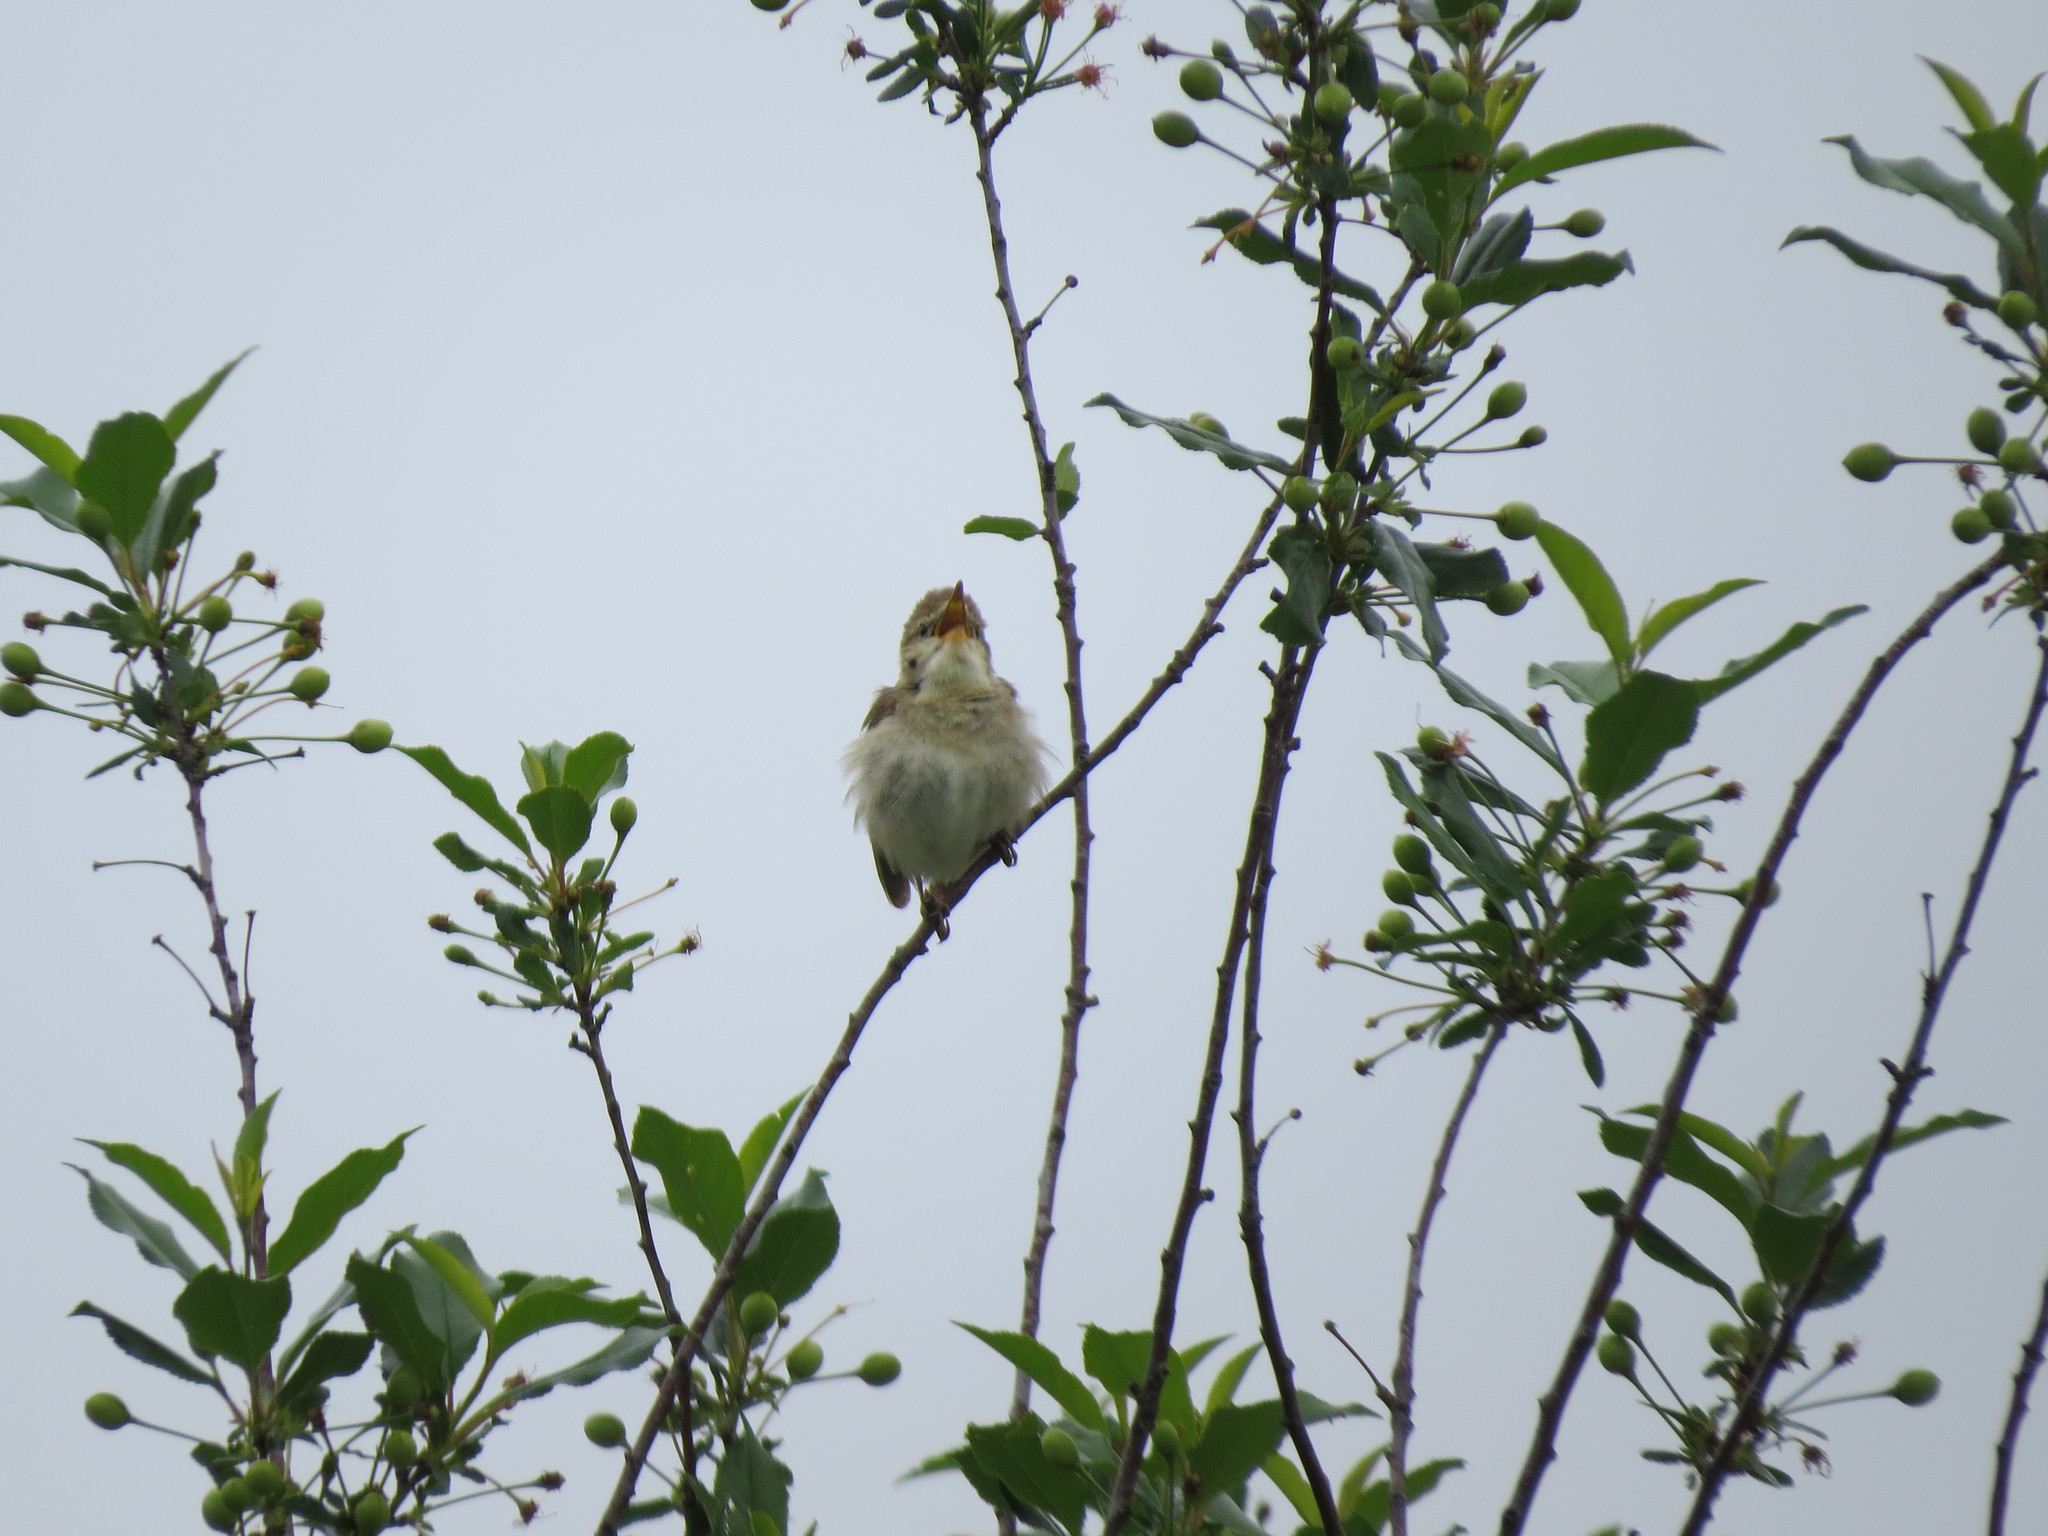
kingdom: Animalia
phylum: Chordata
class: Aves
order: Passeriformes
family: Acrocephalidae
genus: Acrocephalus
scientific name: Acrocephalus dumetorum
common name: Blyth's reed warbler
